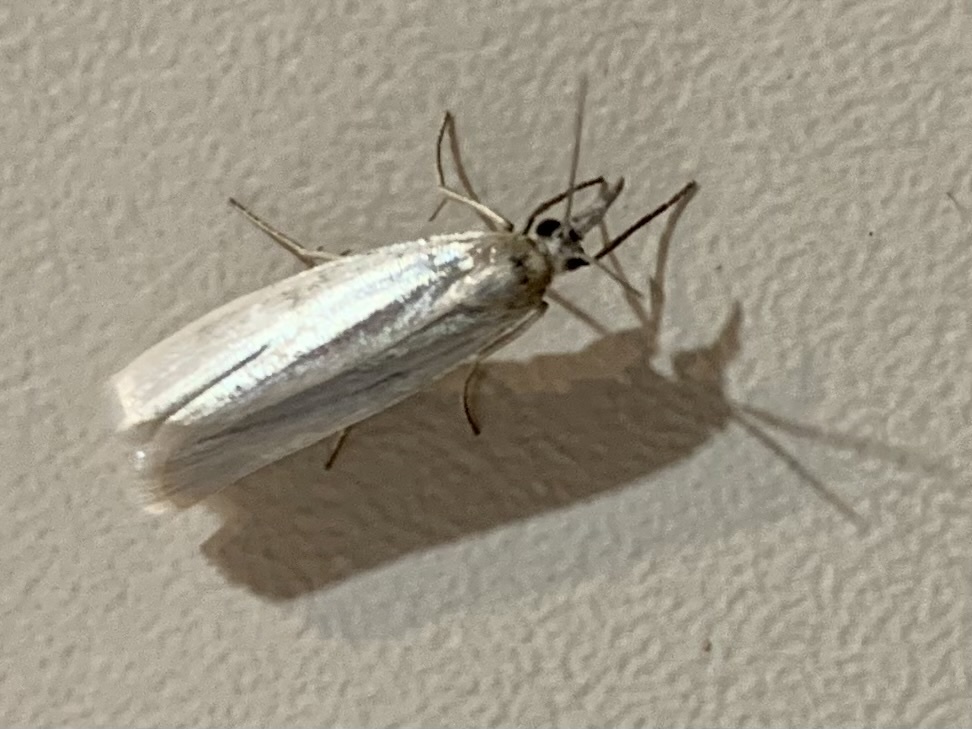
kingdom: Animalia
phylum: Arthropoda
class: Insecta
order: Lepidoptera
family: Crambidae
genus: Crambus
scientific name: Crambus perlellus
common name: Yellow satin veneer
